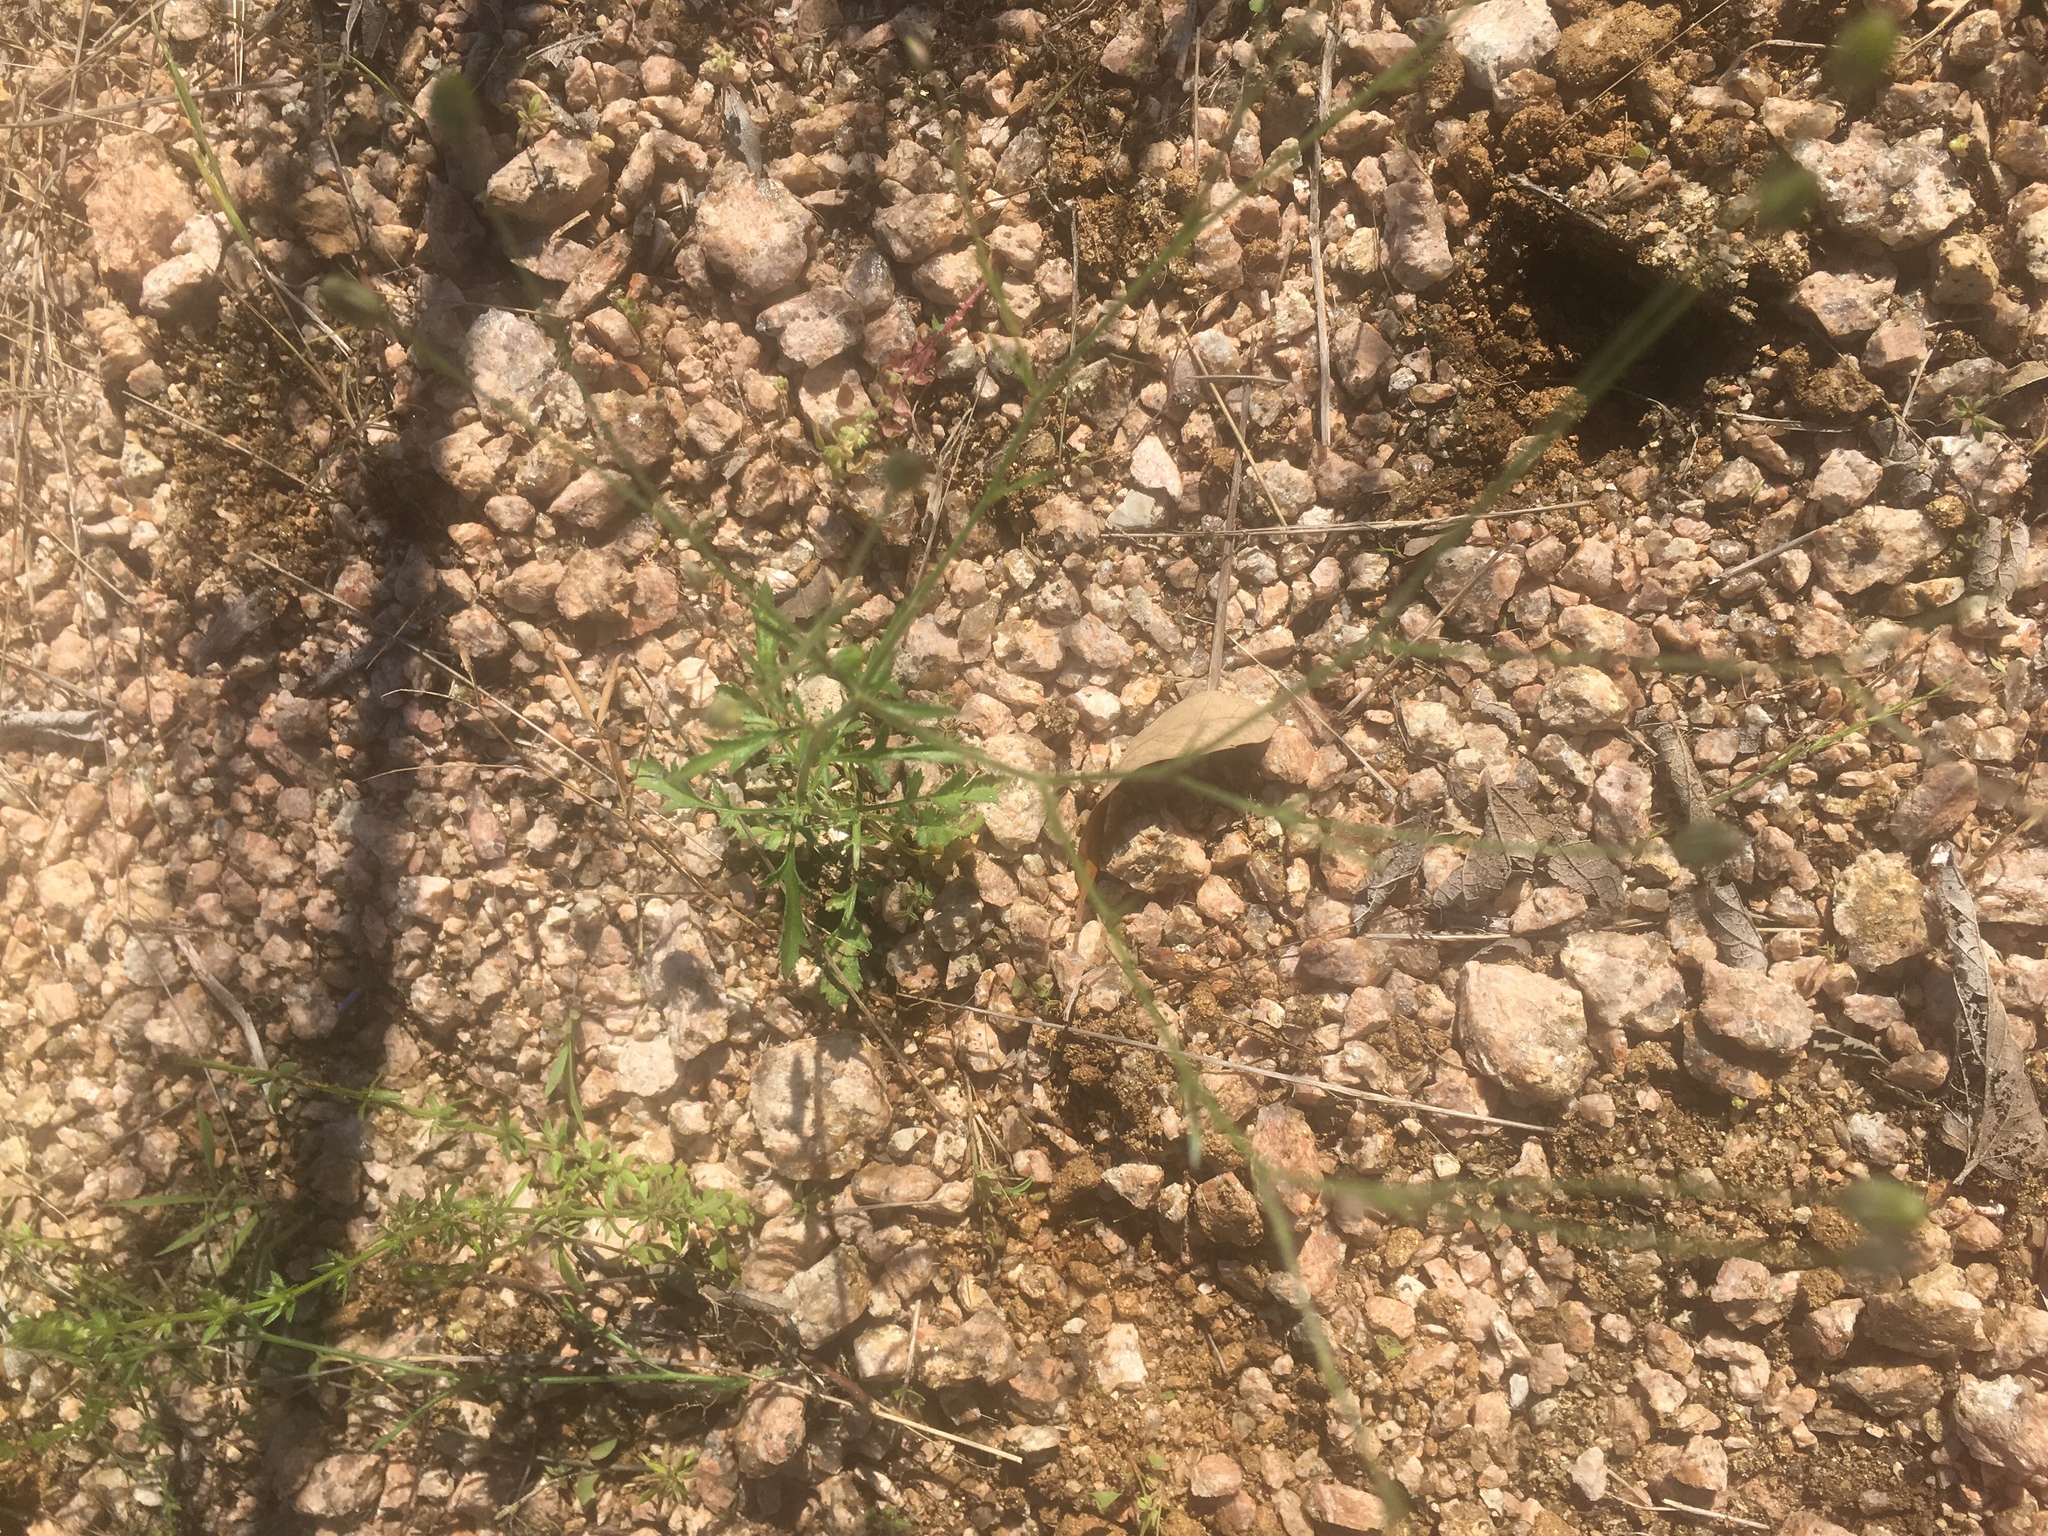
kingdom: Plantae
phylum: Tracheophyta
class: Liliopsida
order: Asparagales
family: Iridaceae
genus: Nemastylis
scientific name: Nemastylis geminiflora
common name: Prairie celestial
